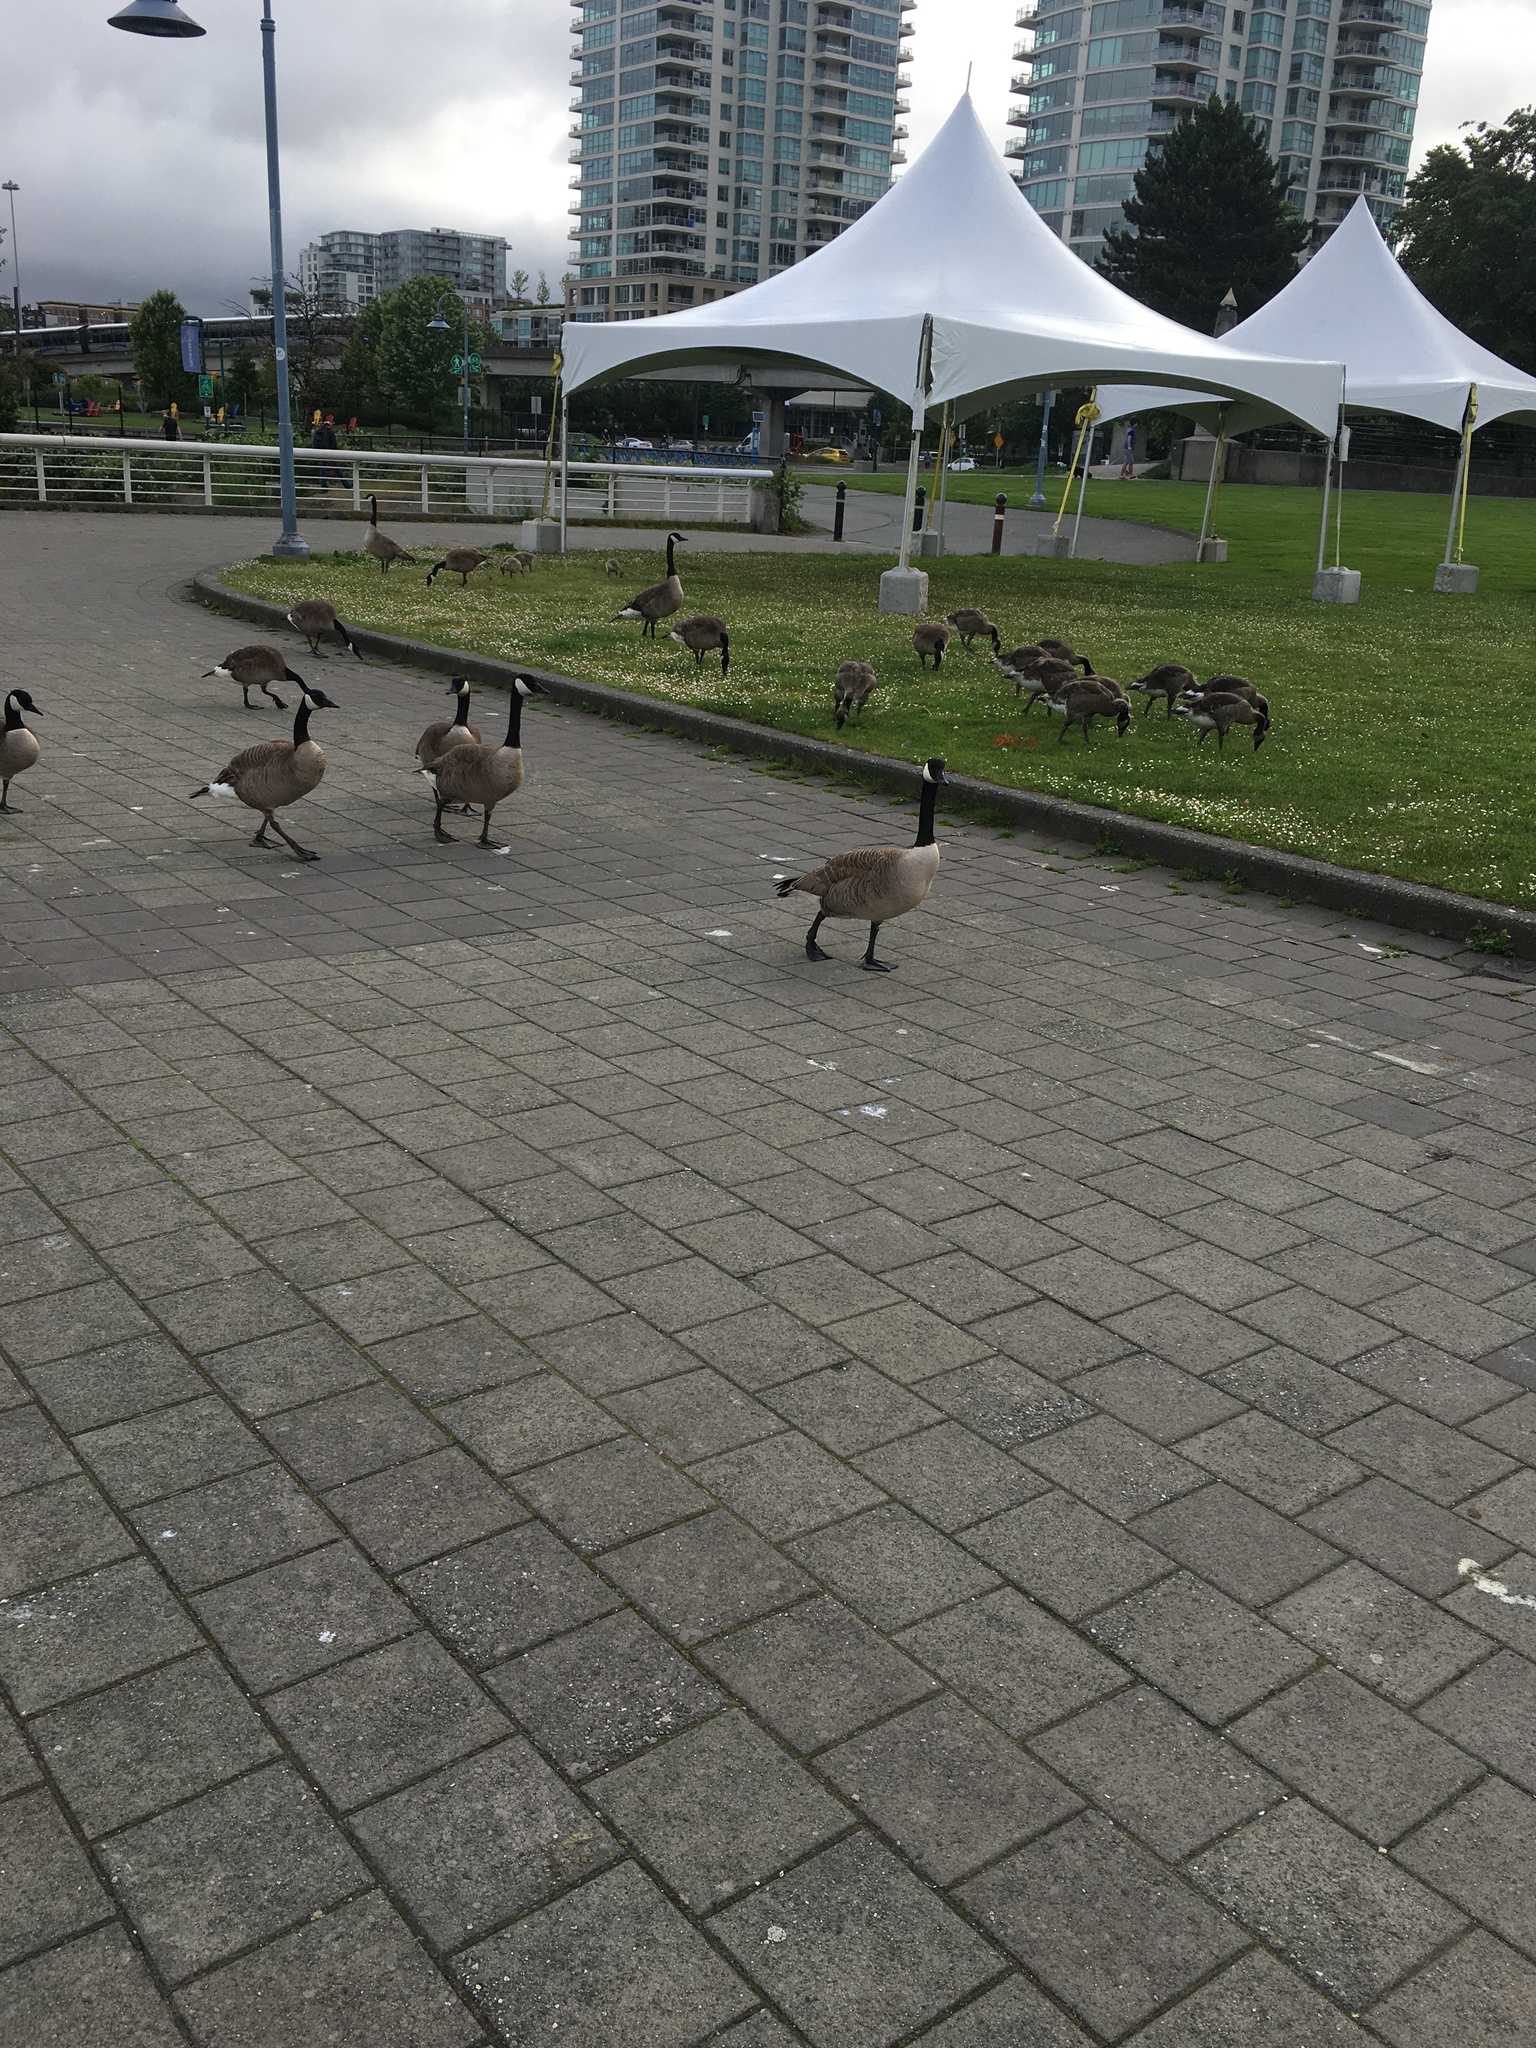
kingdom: Animalia
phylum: Chordata
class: Aves
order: Anseriformes
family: Anatidae
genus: Branta
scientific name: Branta canadensis
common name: Canada goose
